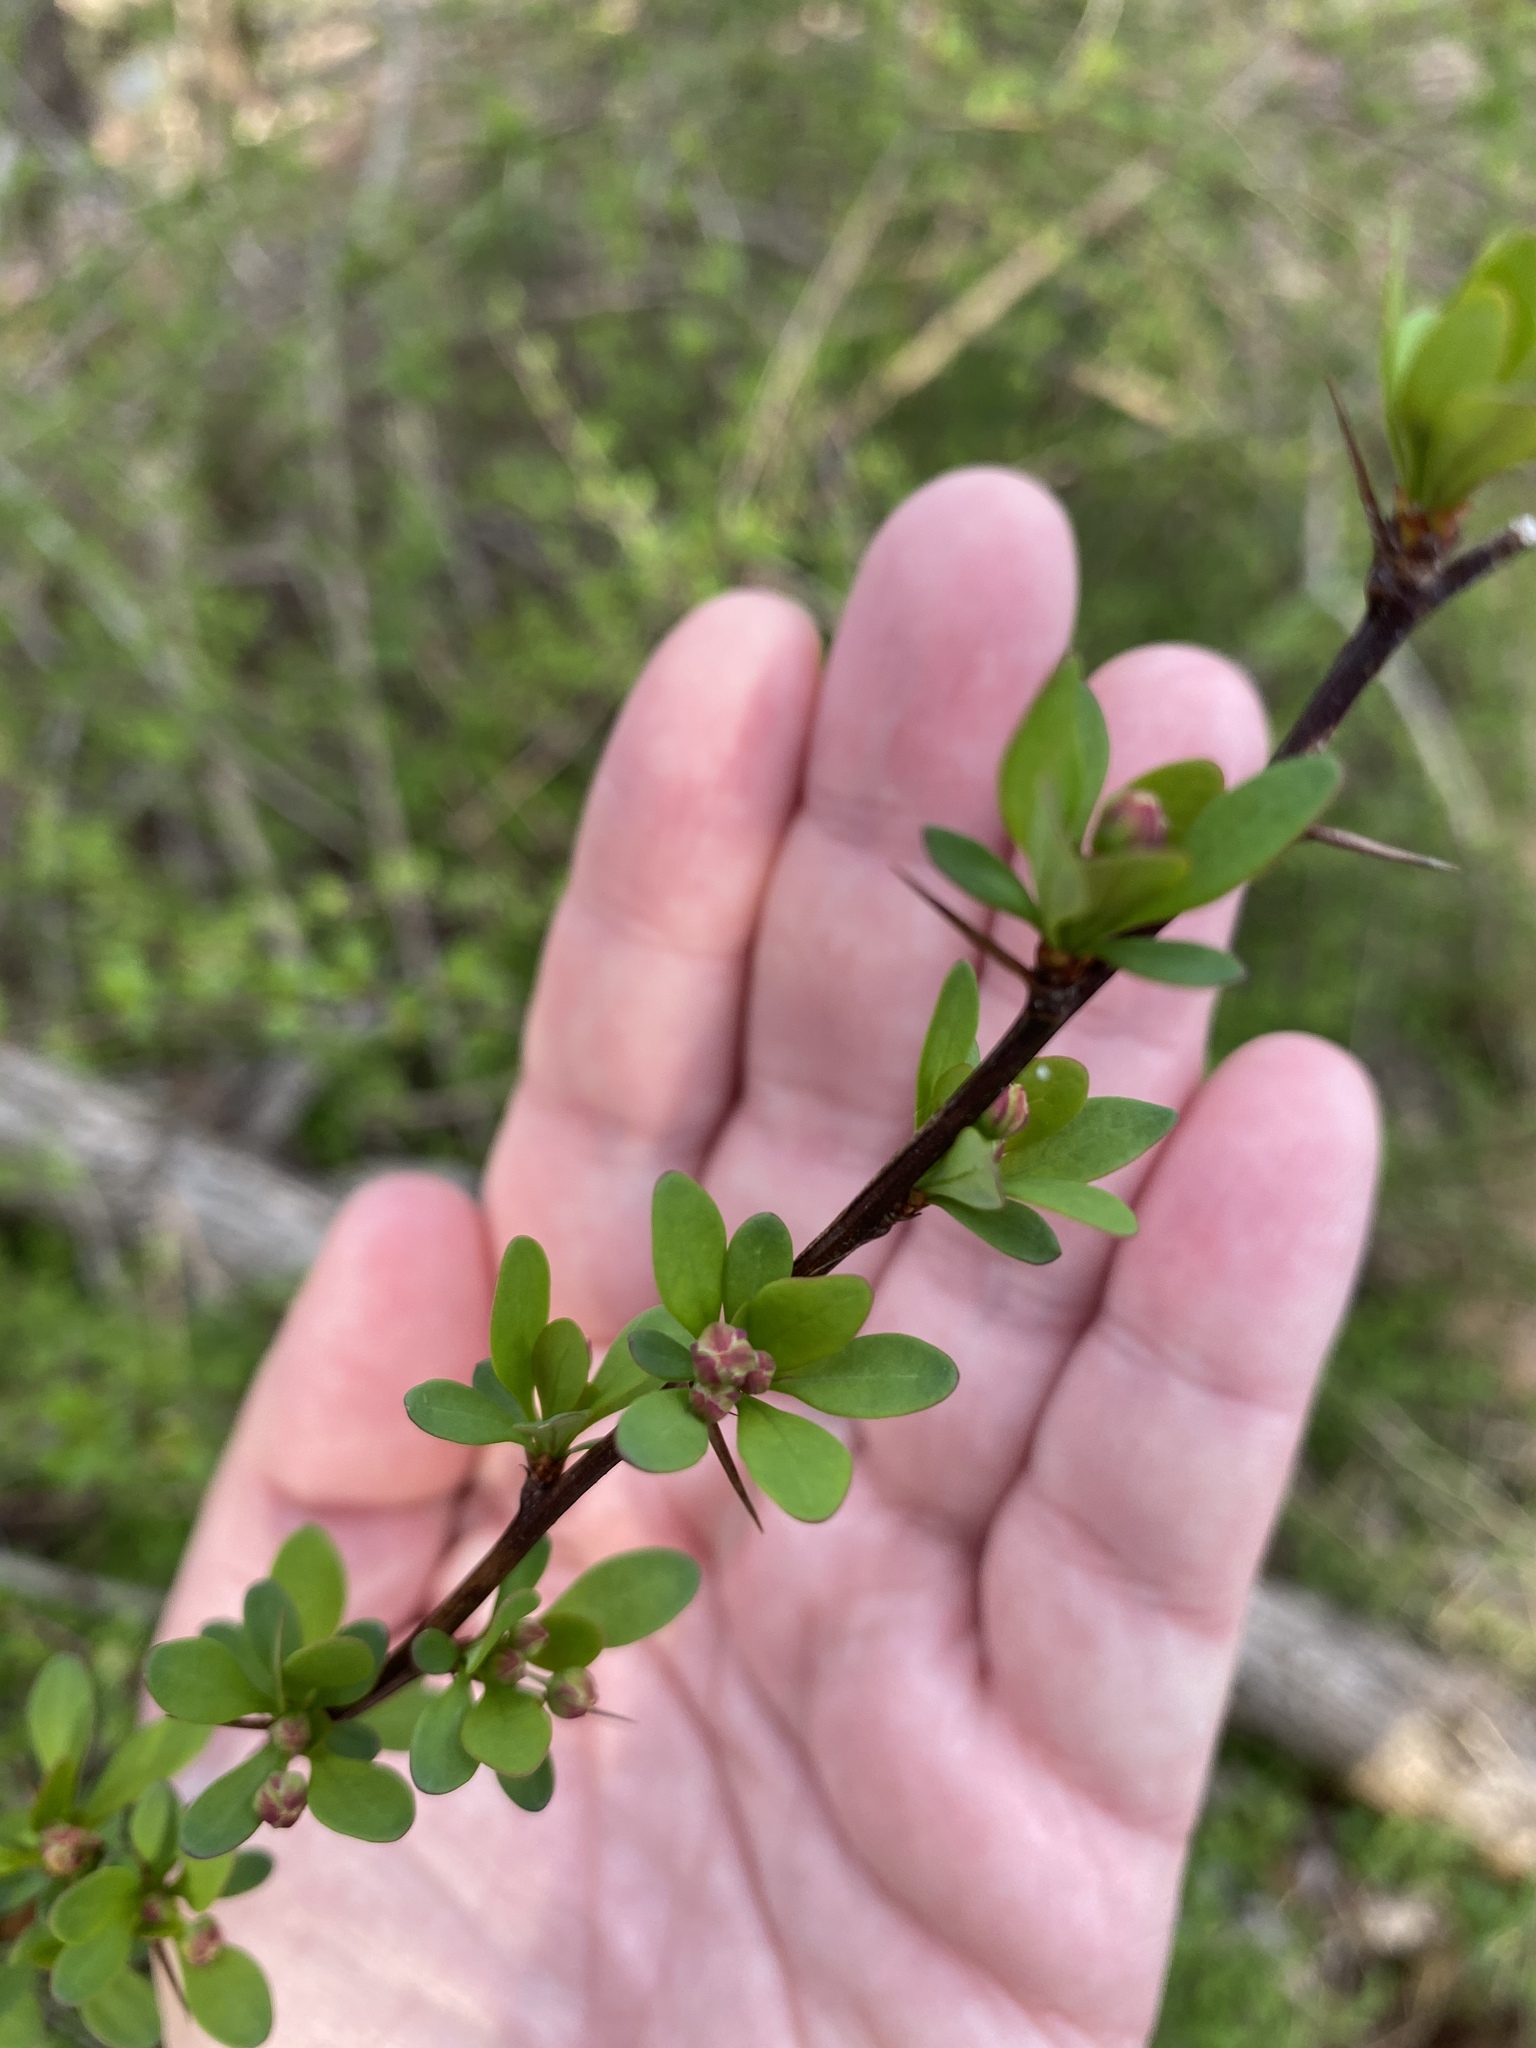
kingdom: Plantae
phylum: Tracheophyta
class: Magnoliopsida
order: Ranunculales
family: Berberidaceae
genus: Berberis
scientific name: Berberis thunbergii
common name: Japanese barberry
